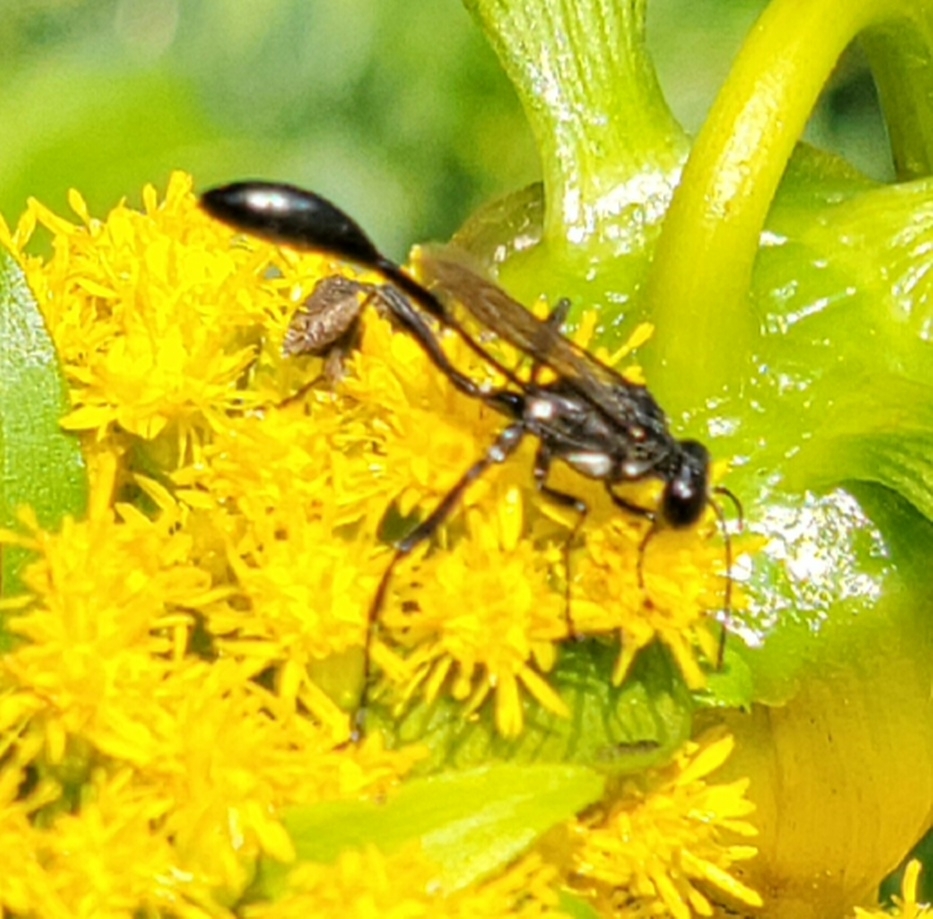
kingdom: Animalia
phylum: Arthropoda
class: Insecta
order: Hymenoptera
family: Sphecidae
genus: Eremnophila
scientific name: Eremnophila aureonotata
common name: Gold-marked thread-waisted wasp
